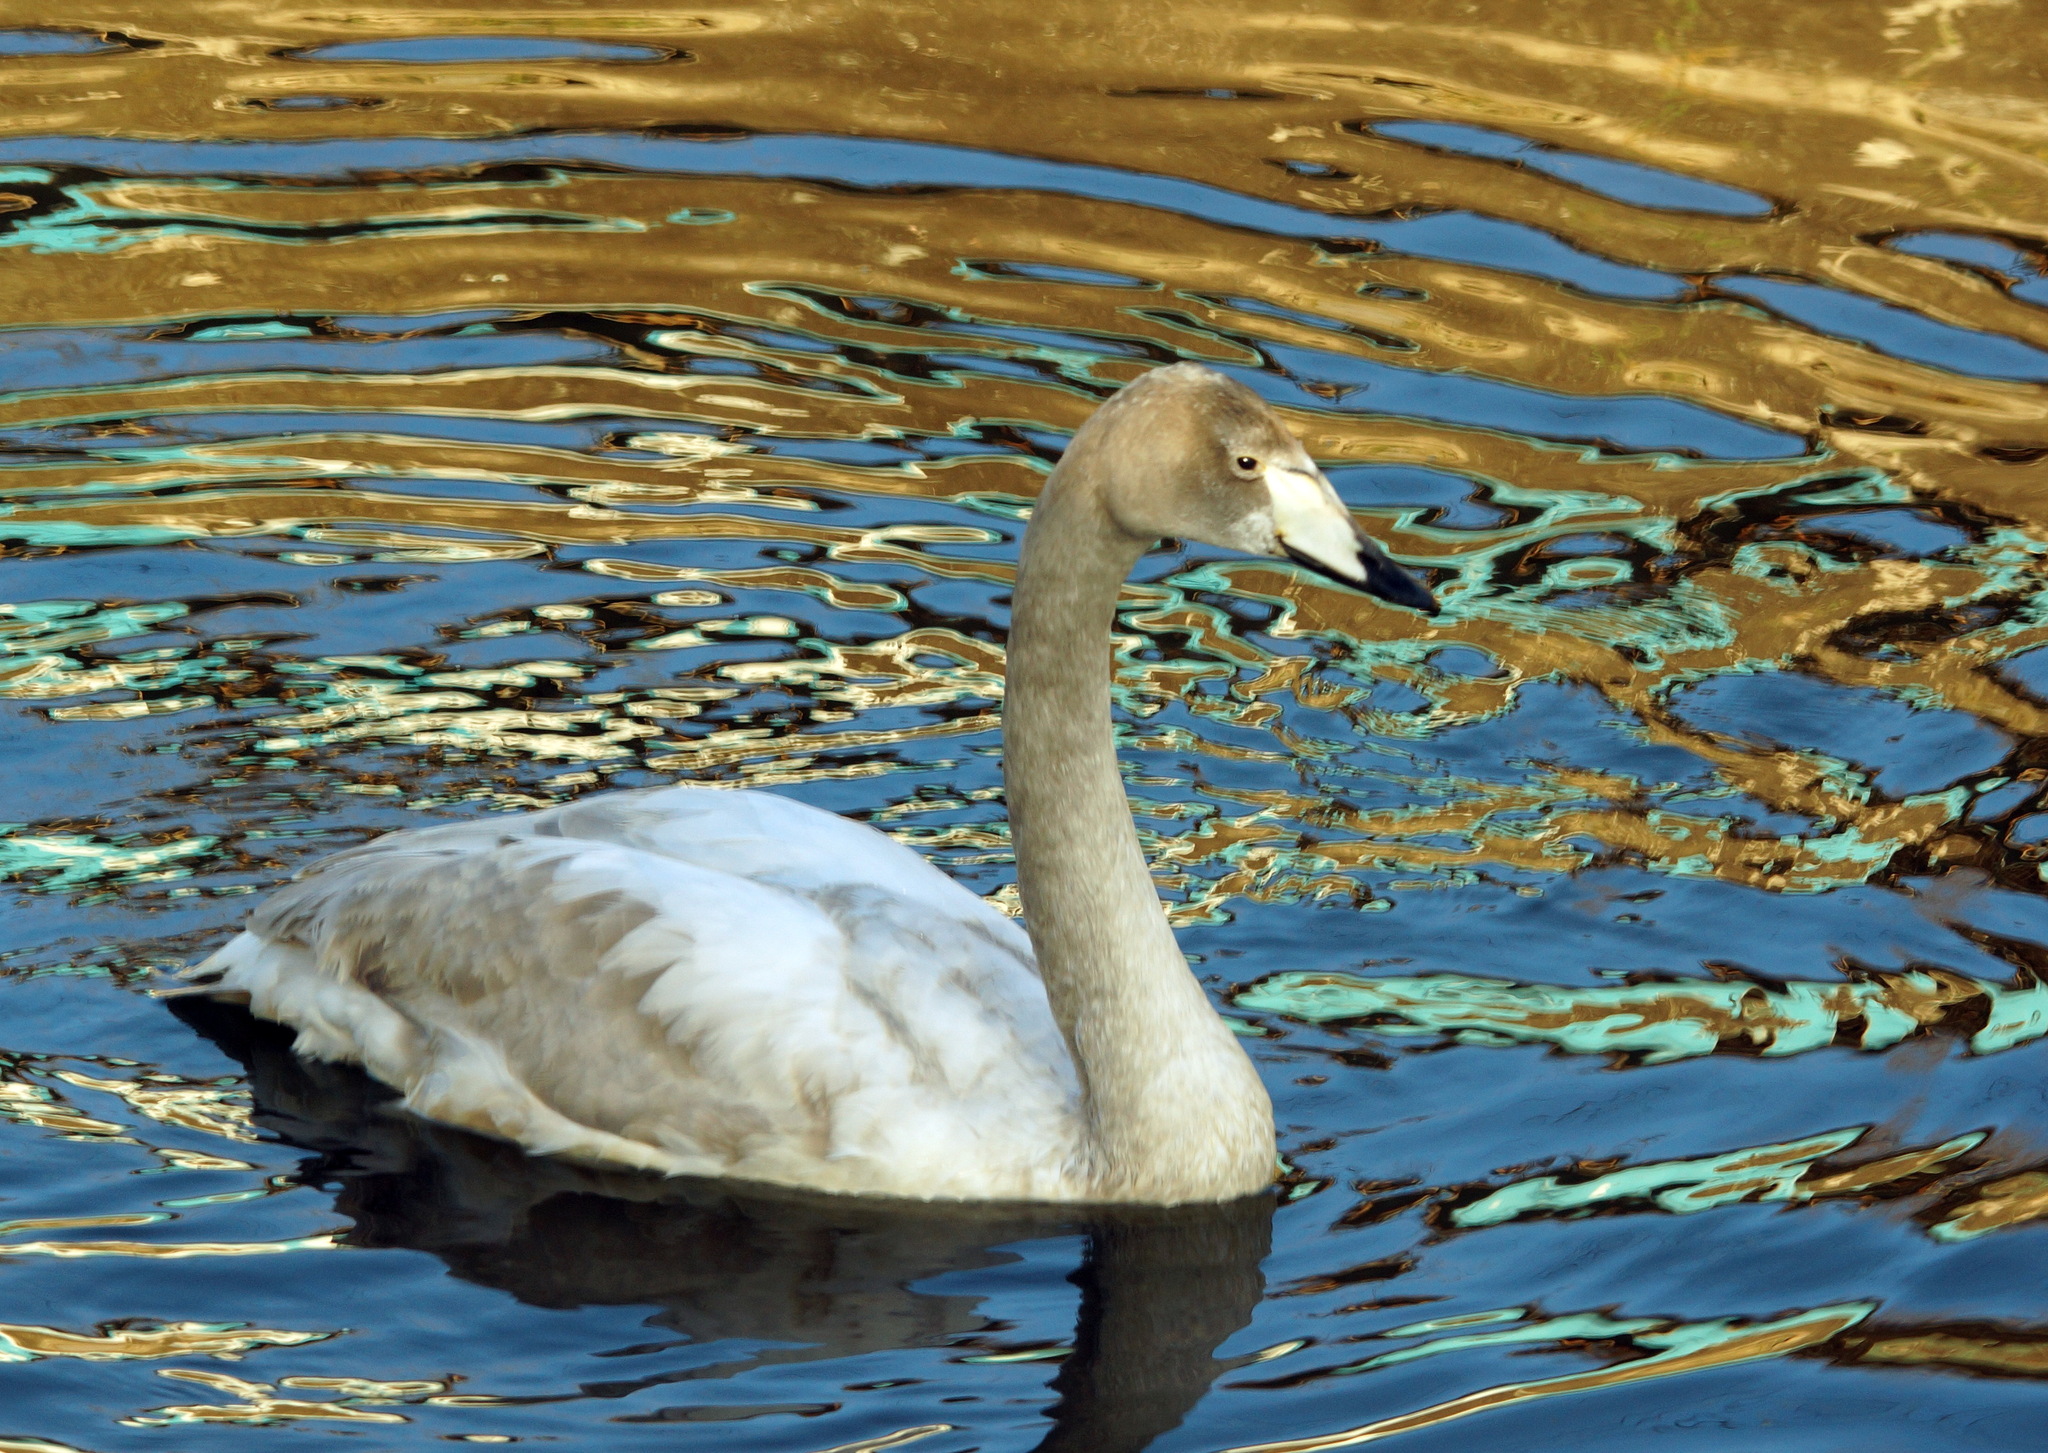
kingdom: Animalia
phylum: Chordata
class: Aves
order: Anseriformes
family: Anatidae
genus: Cygnus
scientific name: Cygnus cygnus
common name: Whooper swan
